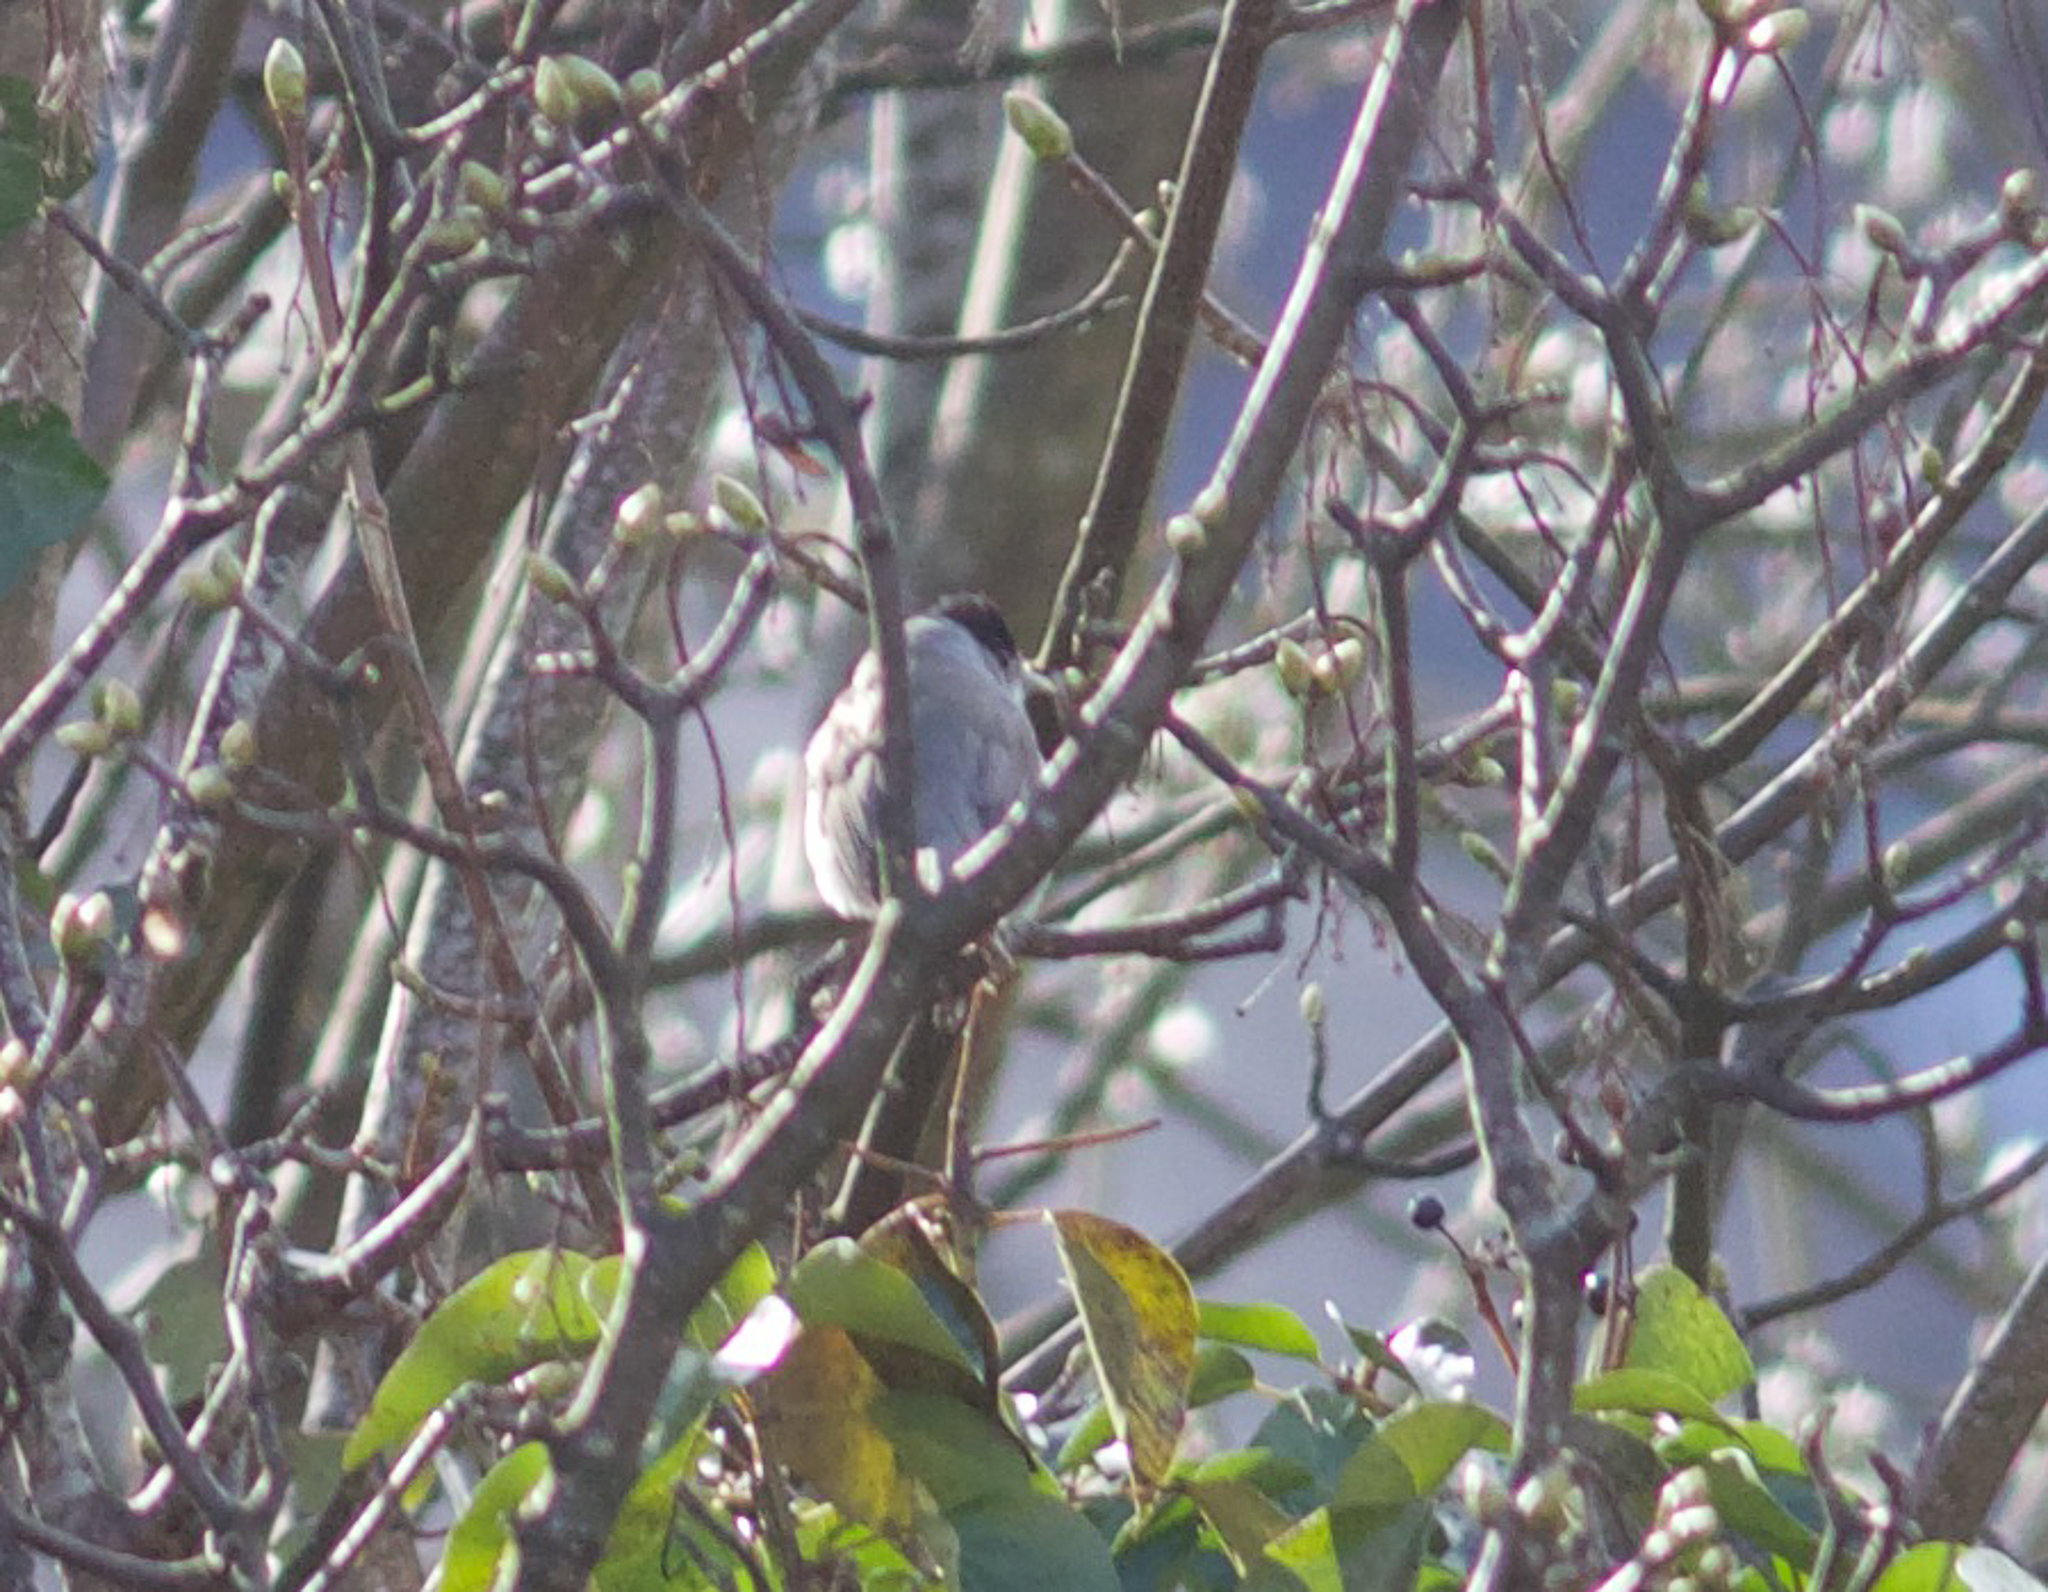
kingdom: Animalia
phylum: Chordata
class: Aves
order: Passeriformes
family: Sylviidae
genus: Sylvia
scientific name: Sylvia atricapilla
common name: Eurasian blackcap
